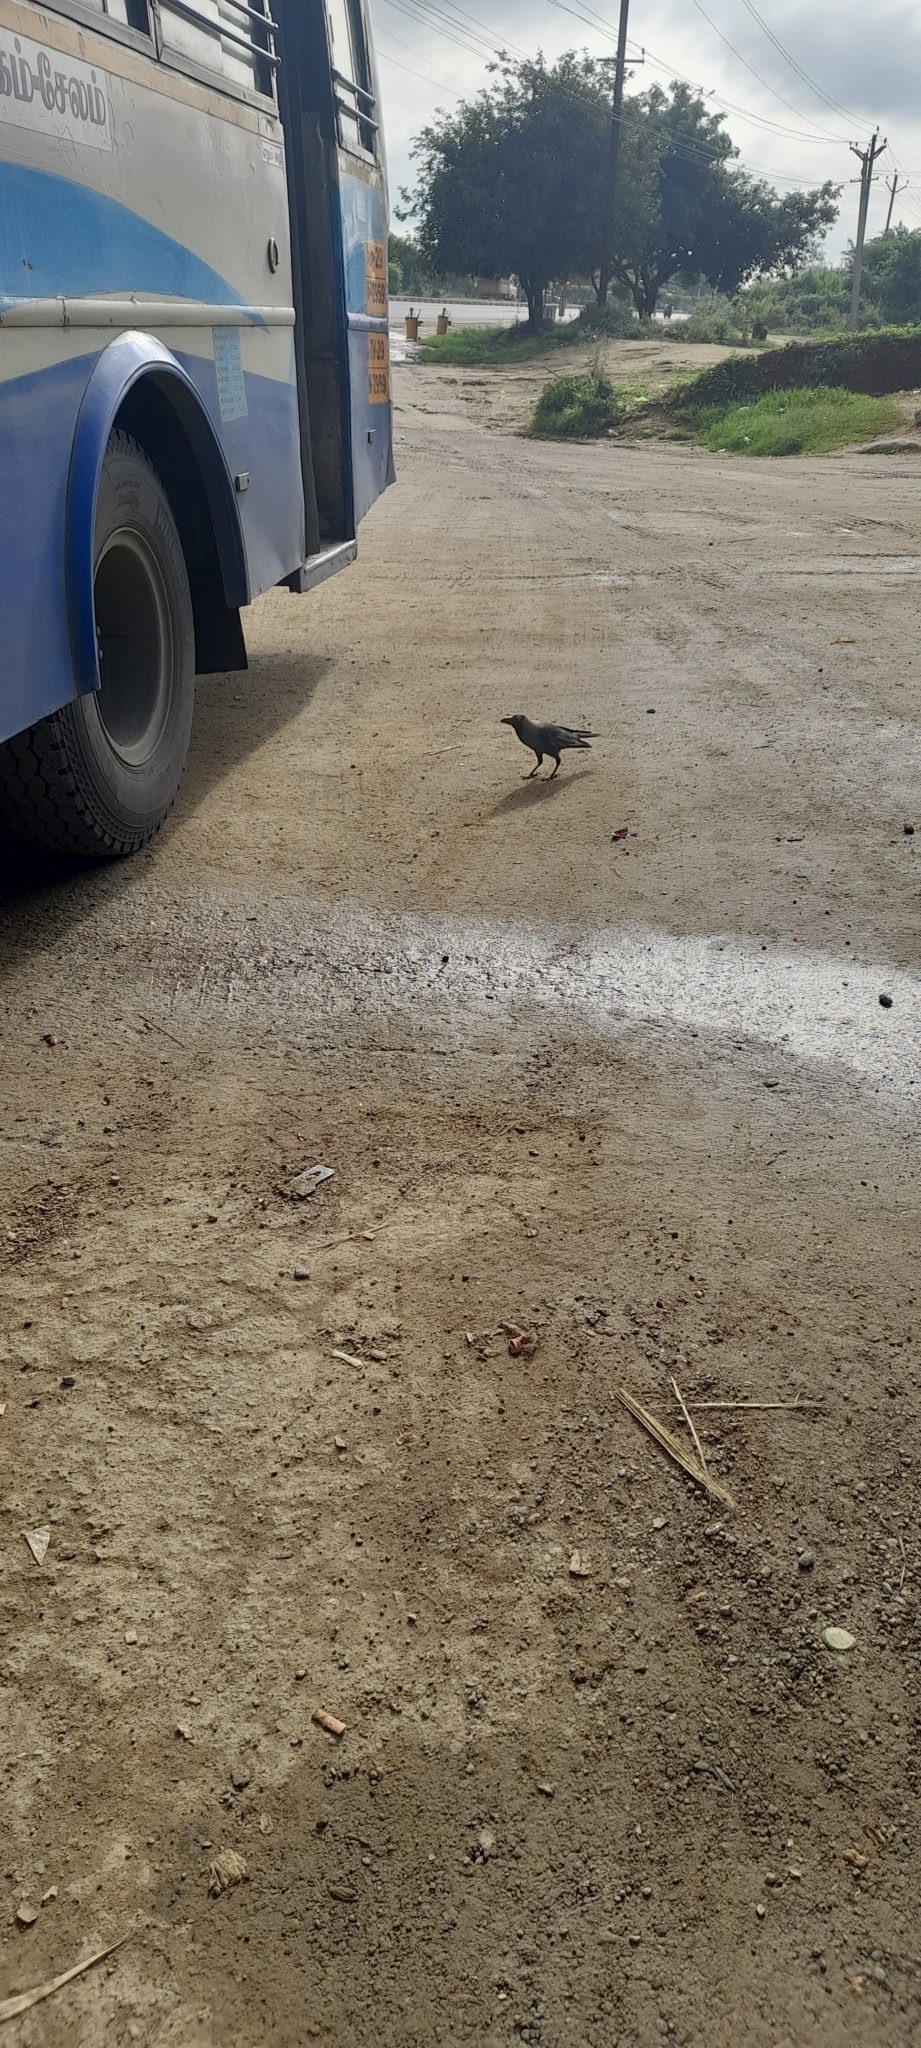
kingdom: Animalia
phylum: Chordata
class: Aves
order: Passeriformes
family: Corvidae
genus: Corvus
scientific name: Corvus splendens
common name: House crow
